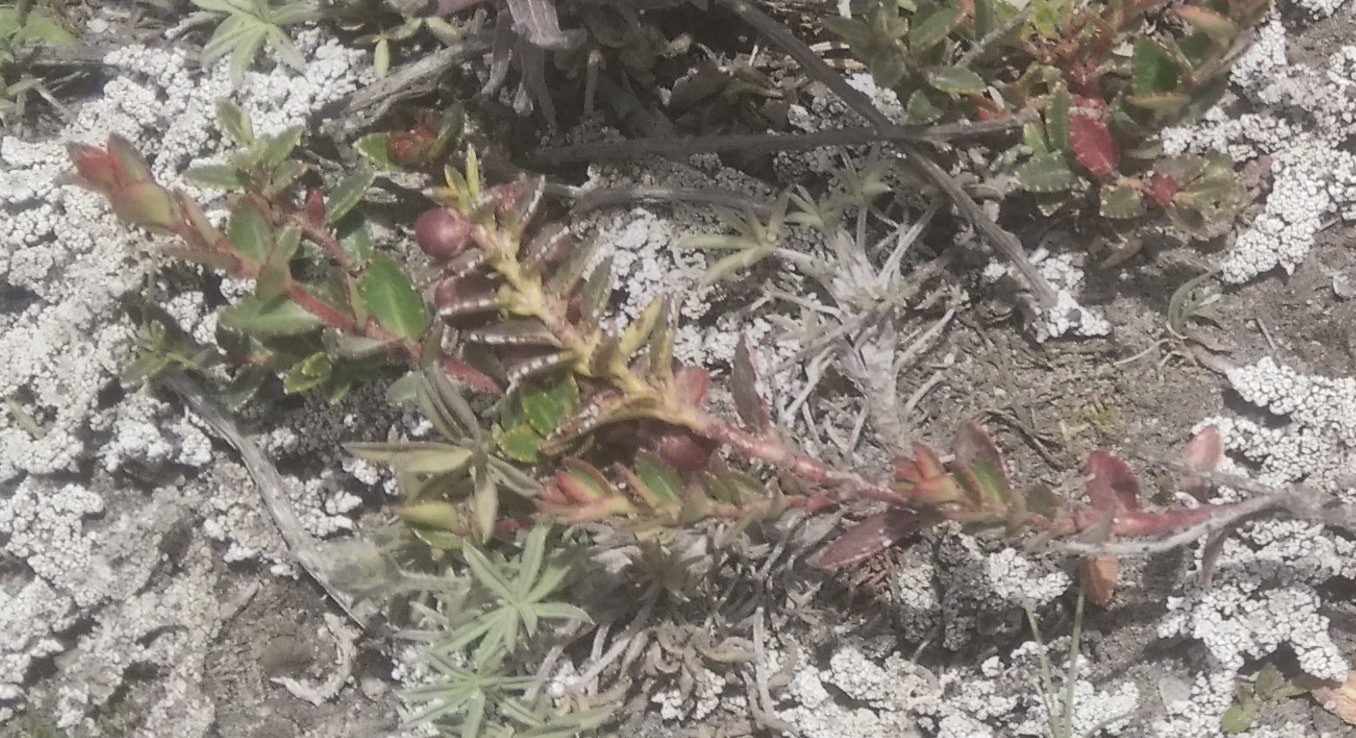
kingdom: Plantae
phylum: Tracheophyta
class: Magnoliopsida
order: Ericales
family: Ericaceae
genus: Gaultheria
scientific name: Gaultheria myrsinoides
